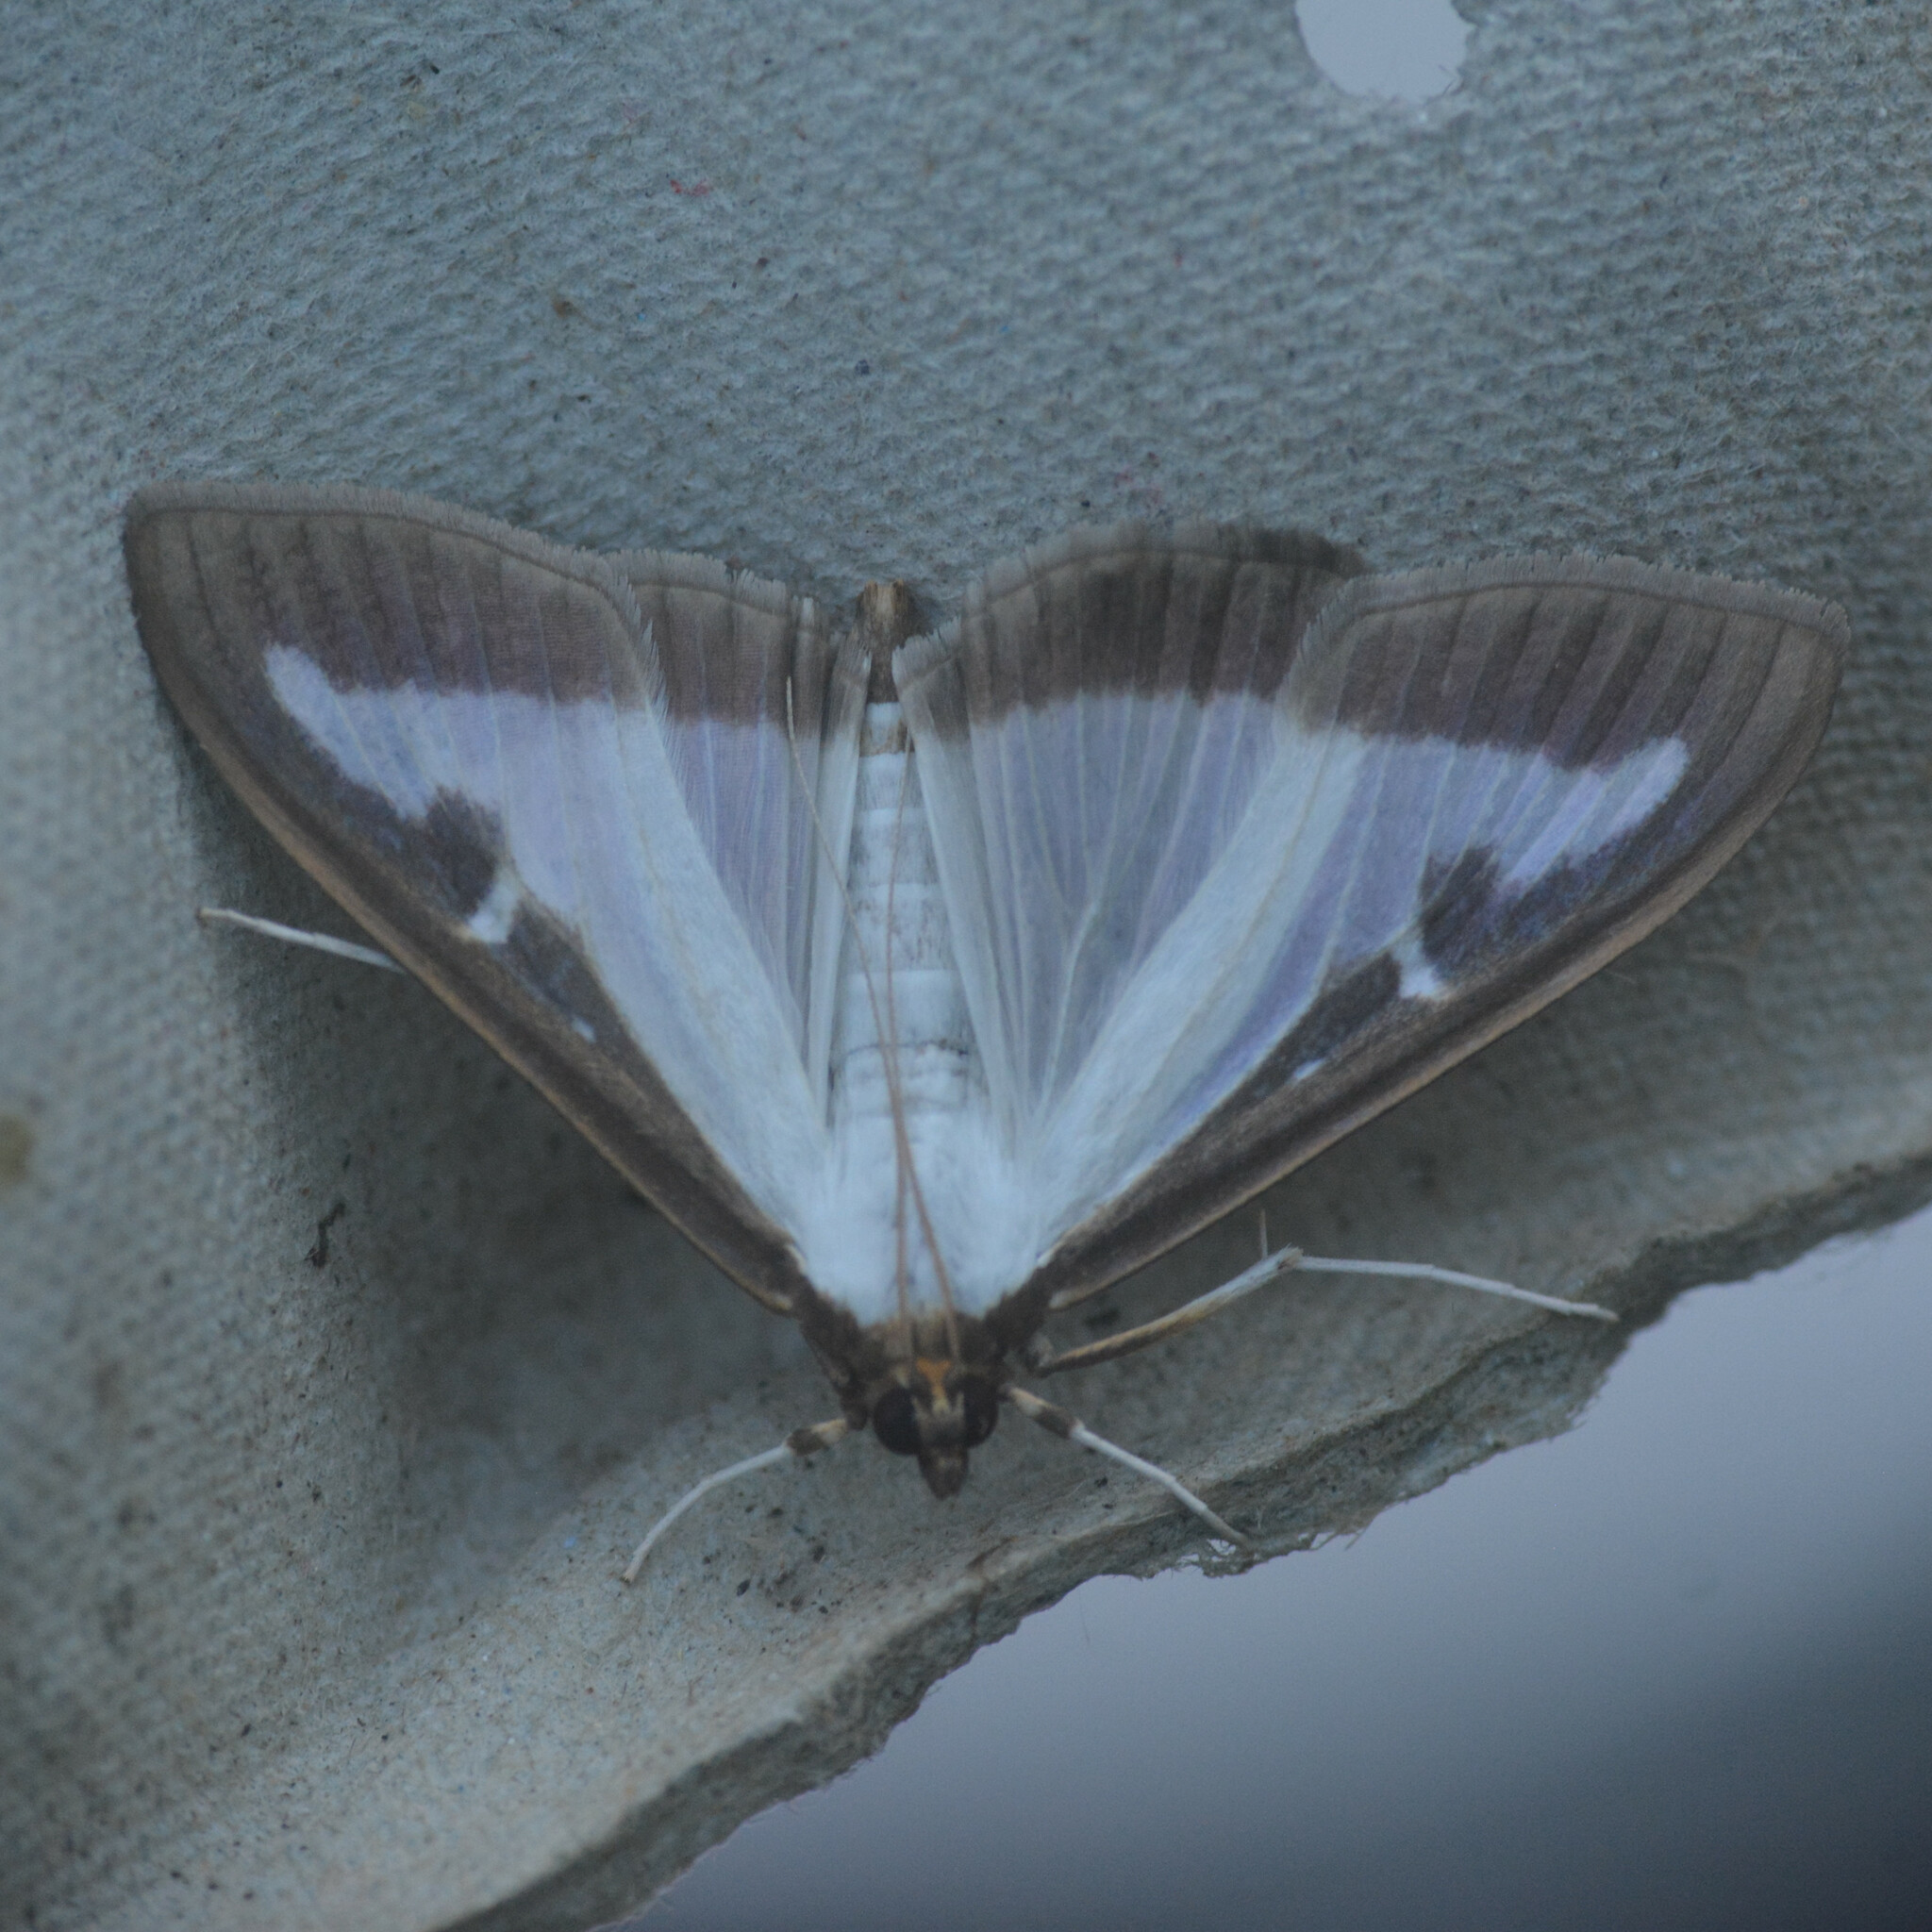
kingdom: Animalia
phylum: Arthropoda
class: Insecta
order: Lepidoptera
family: Crambidae
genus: Cydalima
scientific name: Cydalima perspectalis
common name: Box tree moth
